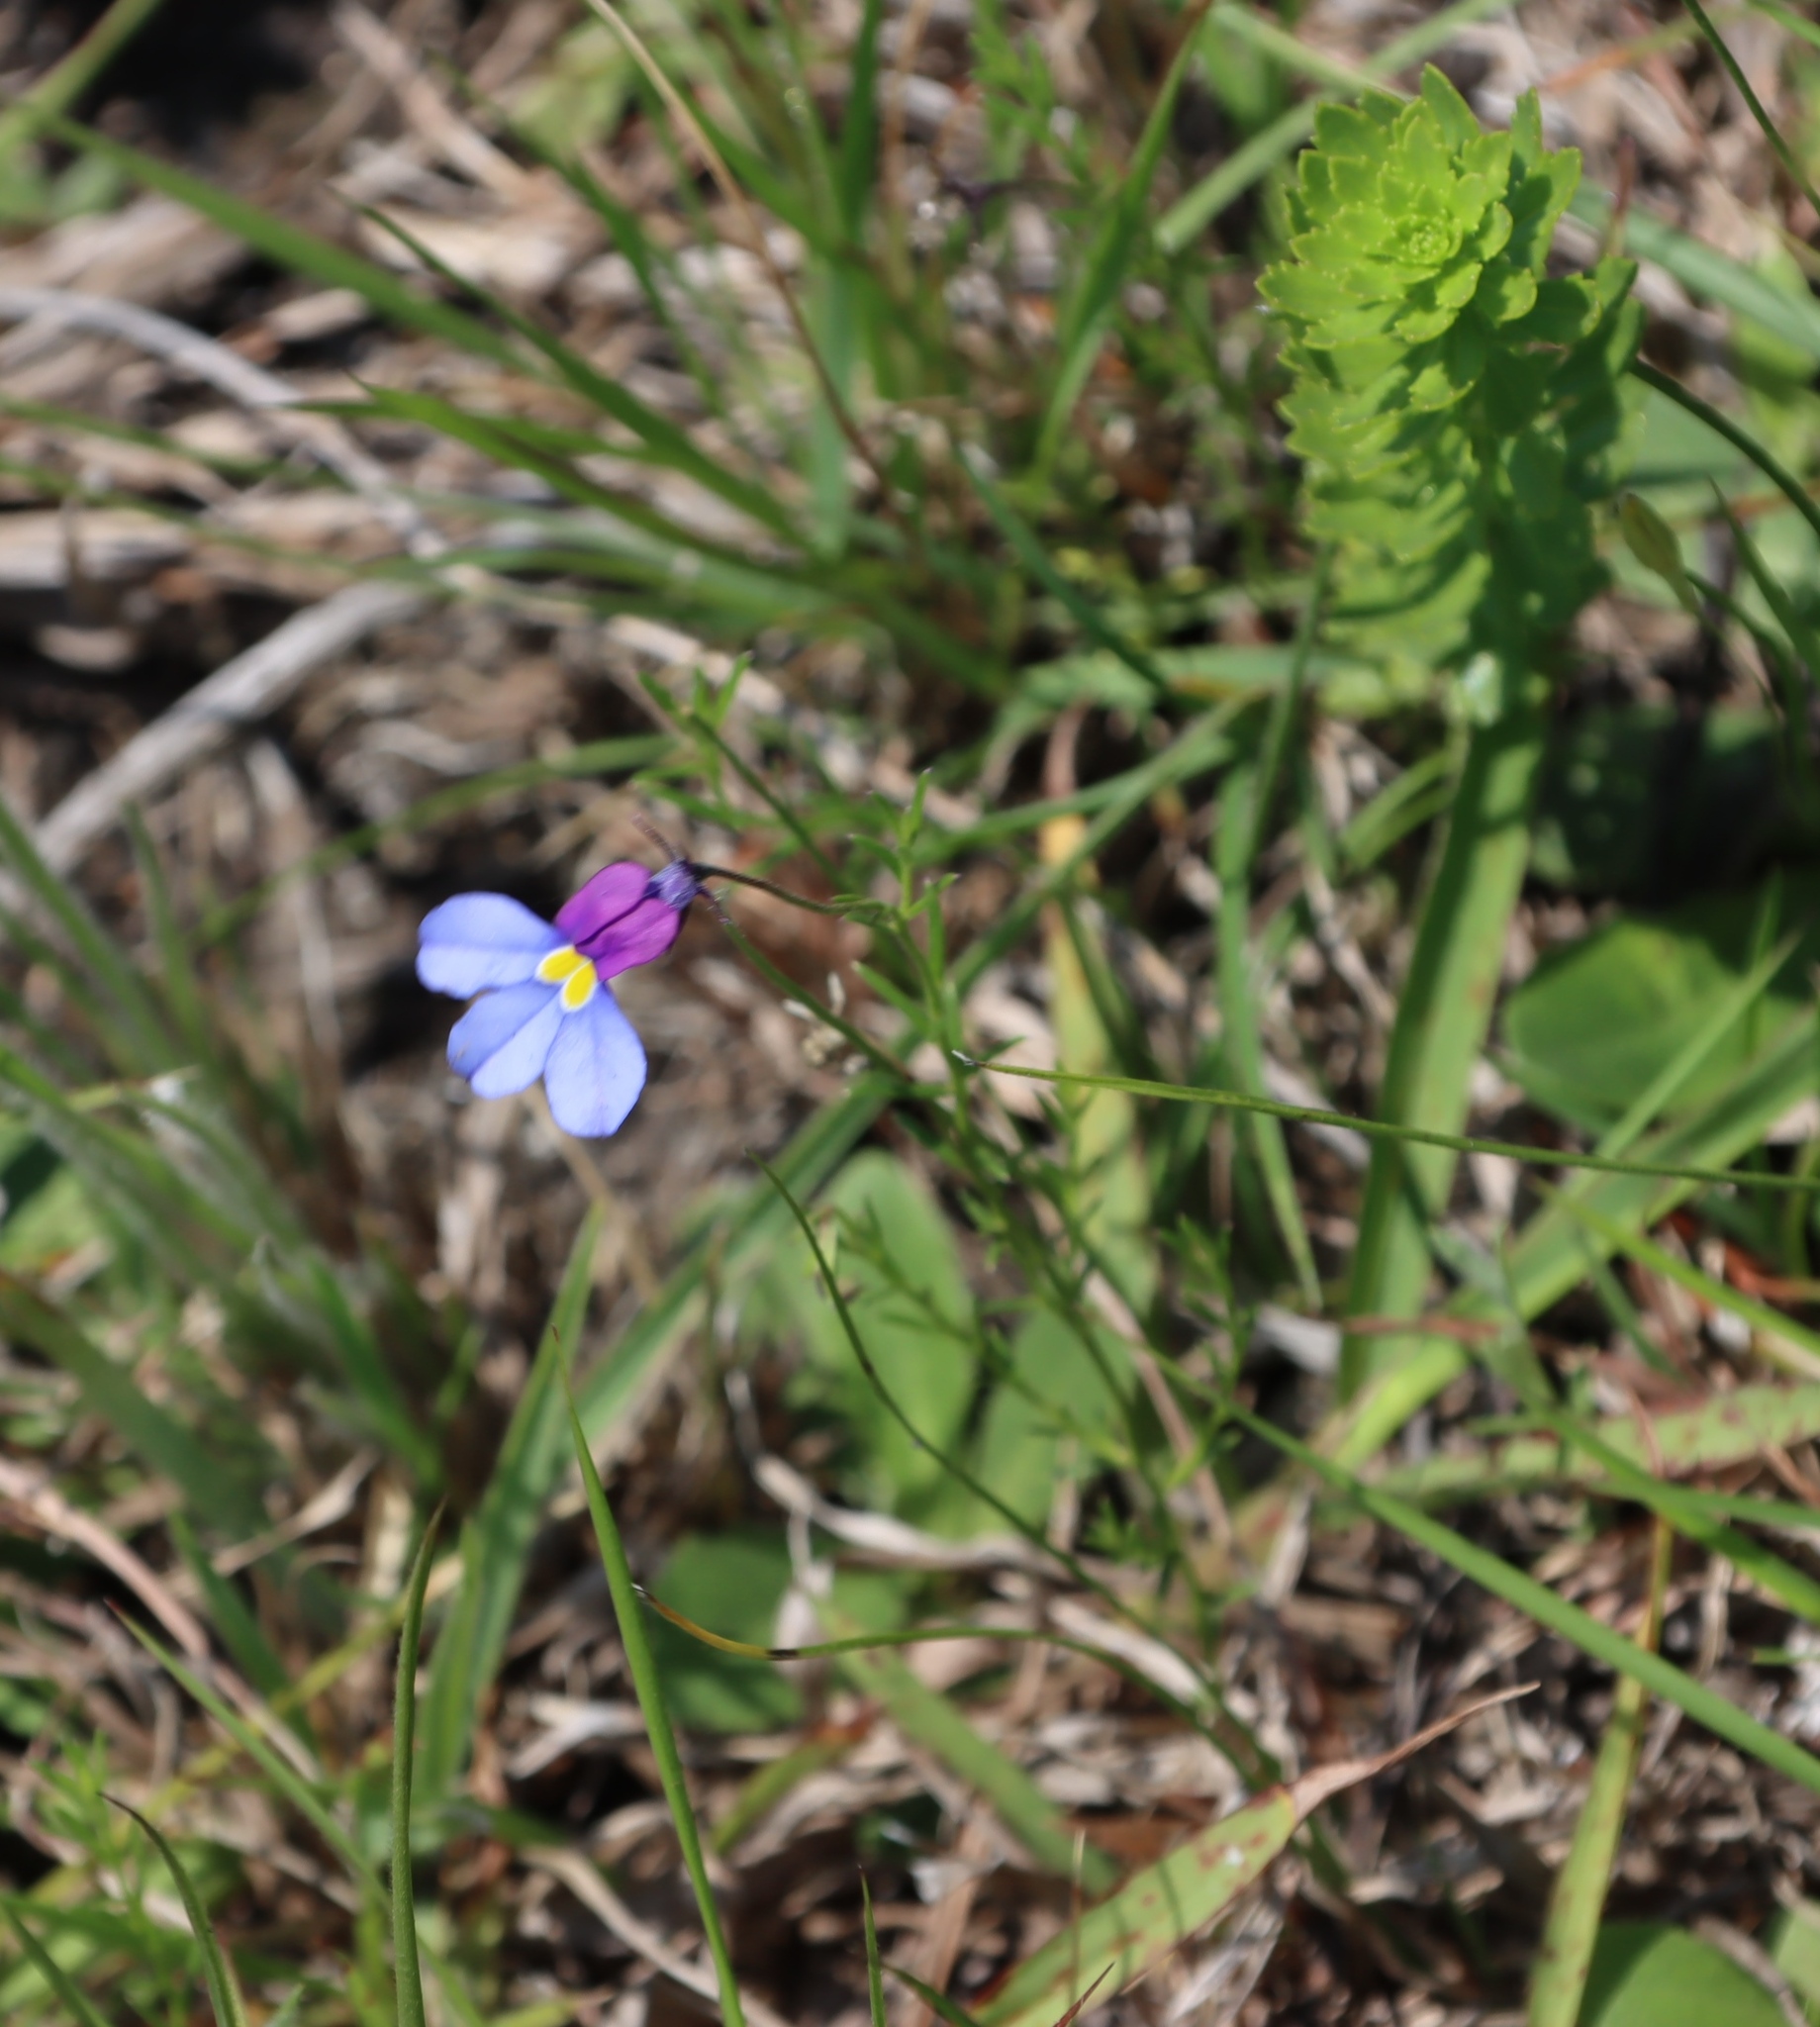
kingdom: Plantae
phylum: Tracheophyta
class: Magnoliopsida
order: Asterales
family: Campanulaceae
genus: Monopsis
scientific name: Monopsis decipiens
